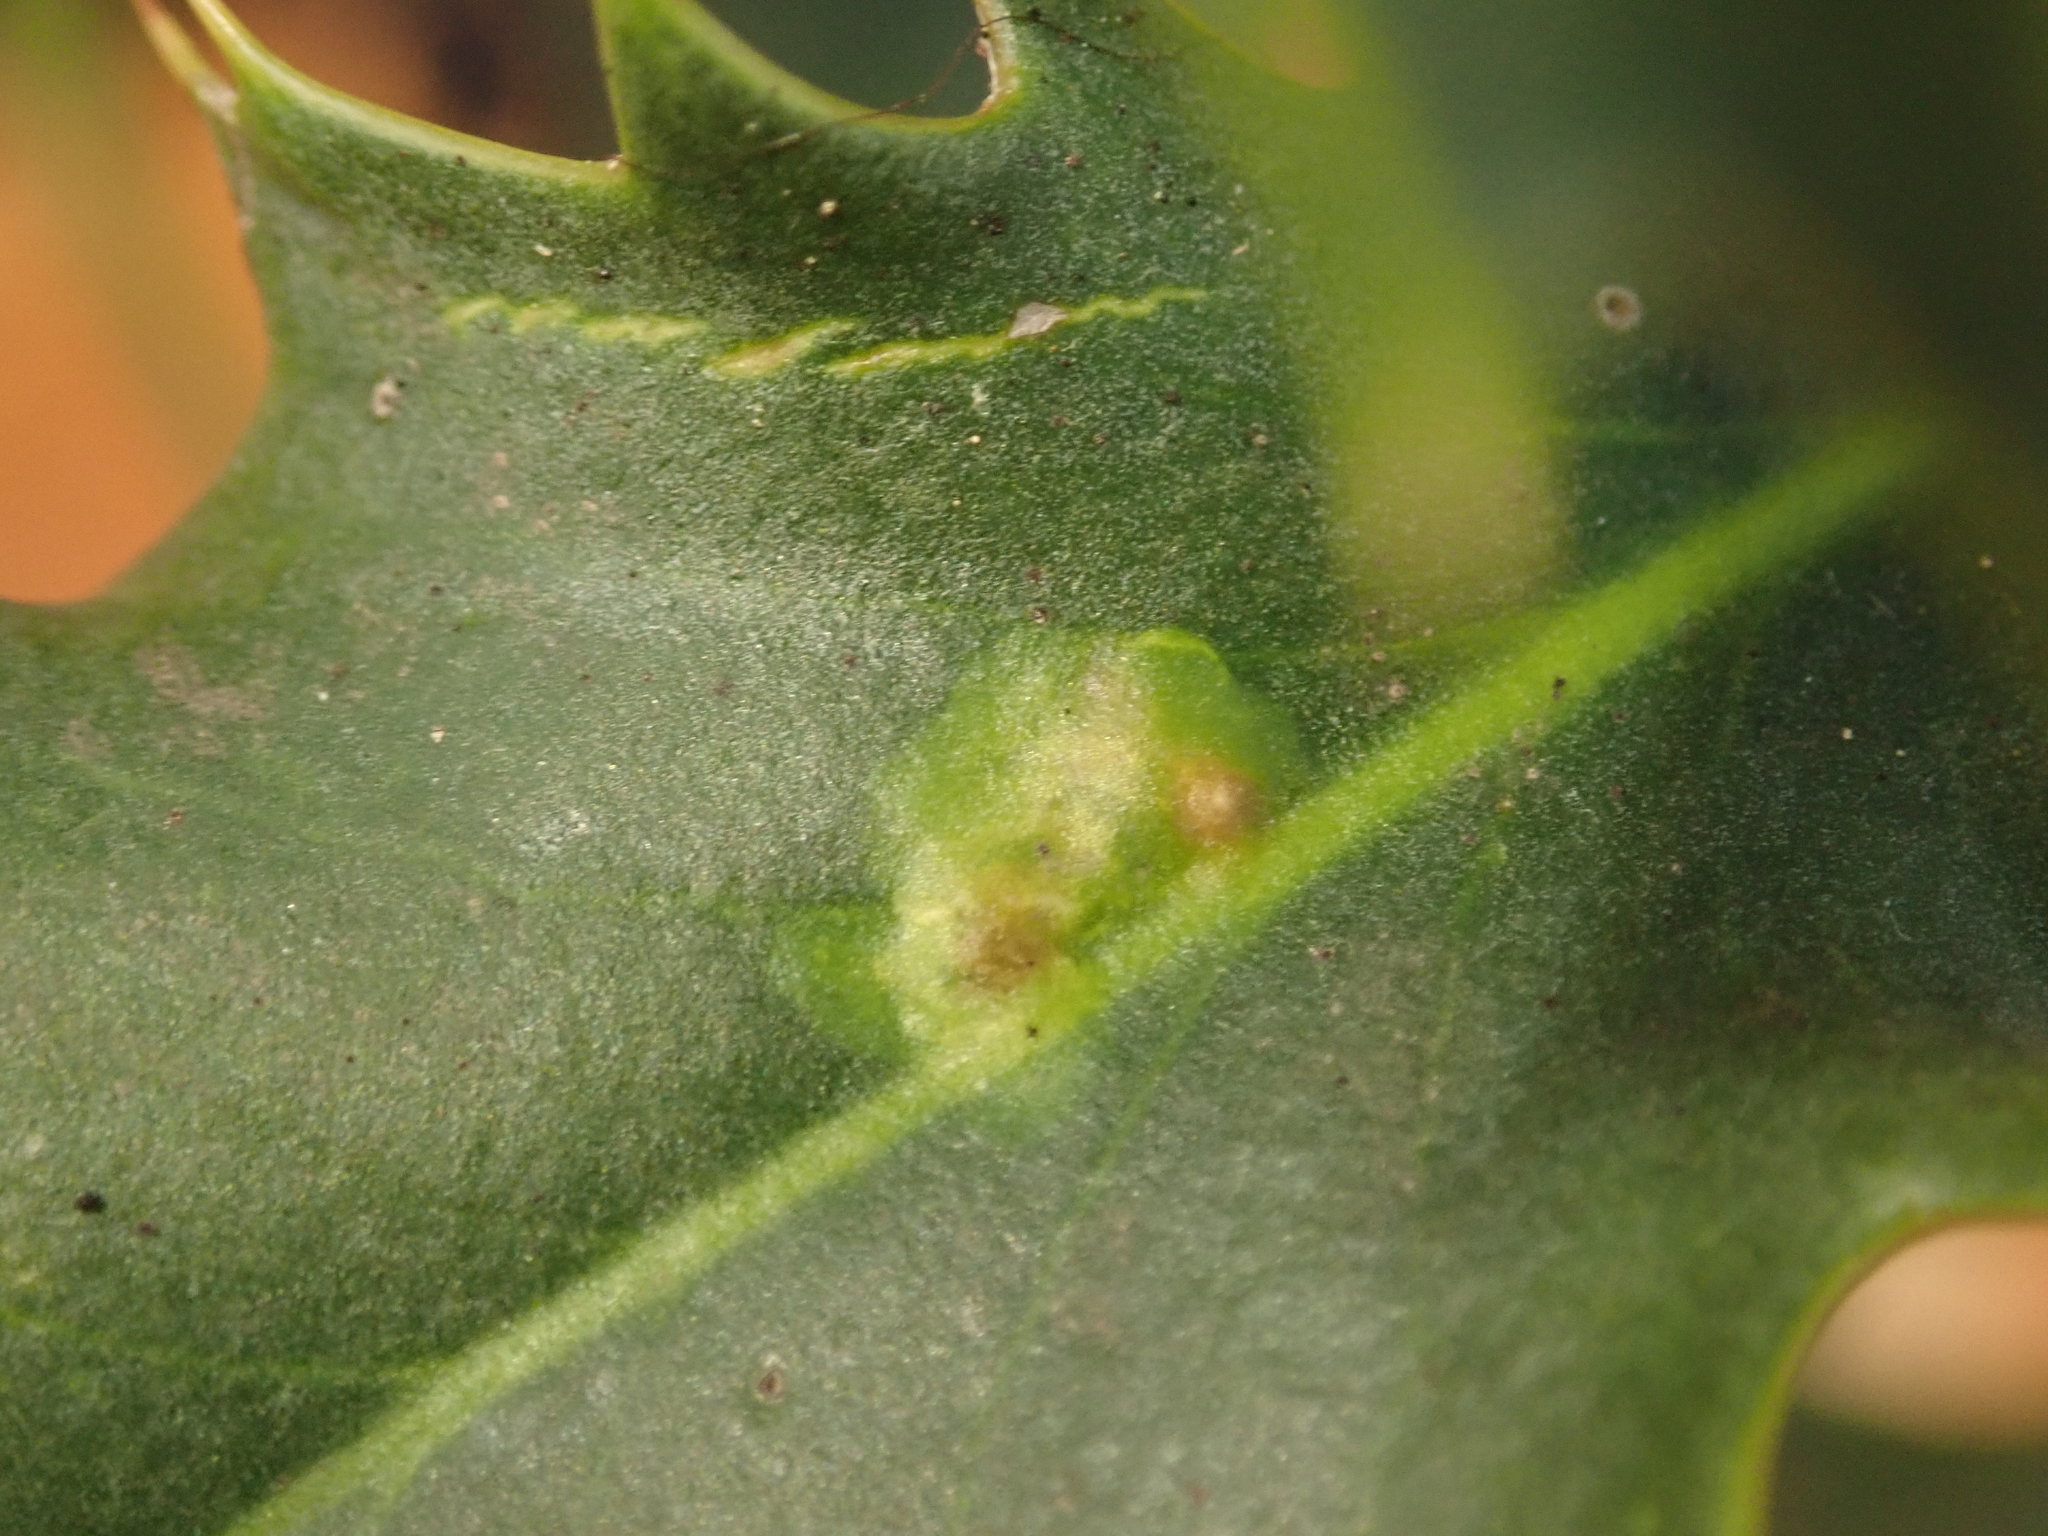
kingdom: Animalia
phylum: Arthropoda
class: Insecta
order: Diptera
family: Agromyzidae
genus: Phytomyza
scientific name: Phytomyza ilicis
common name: Holly leafminer
